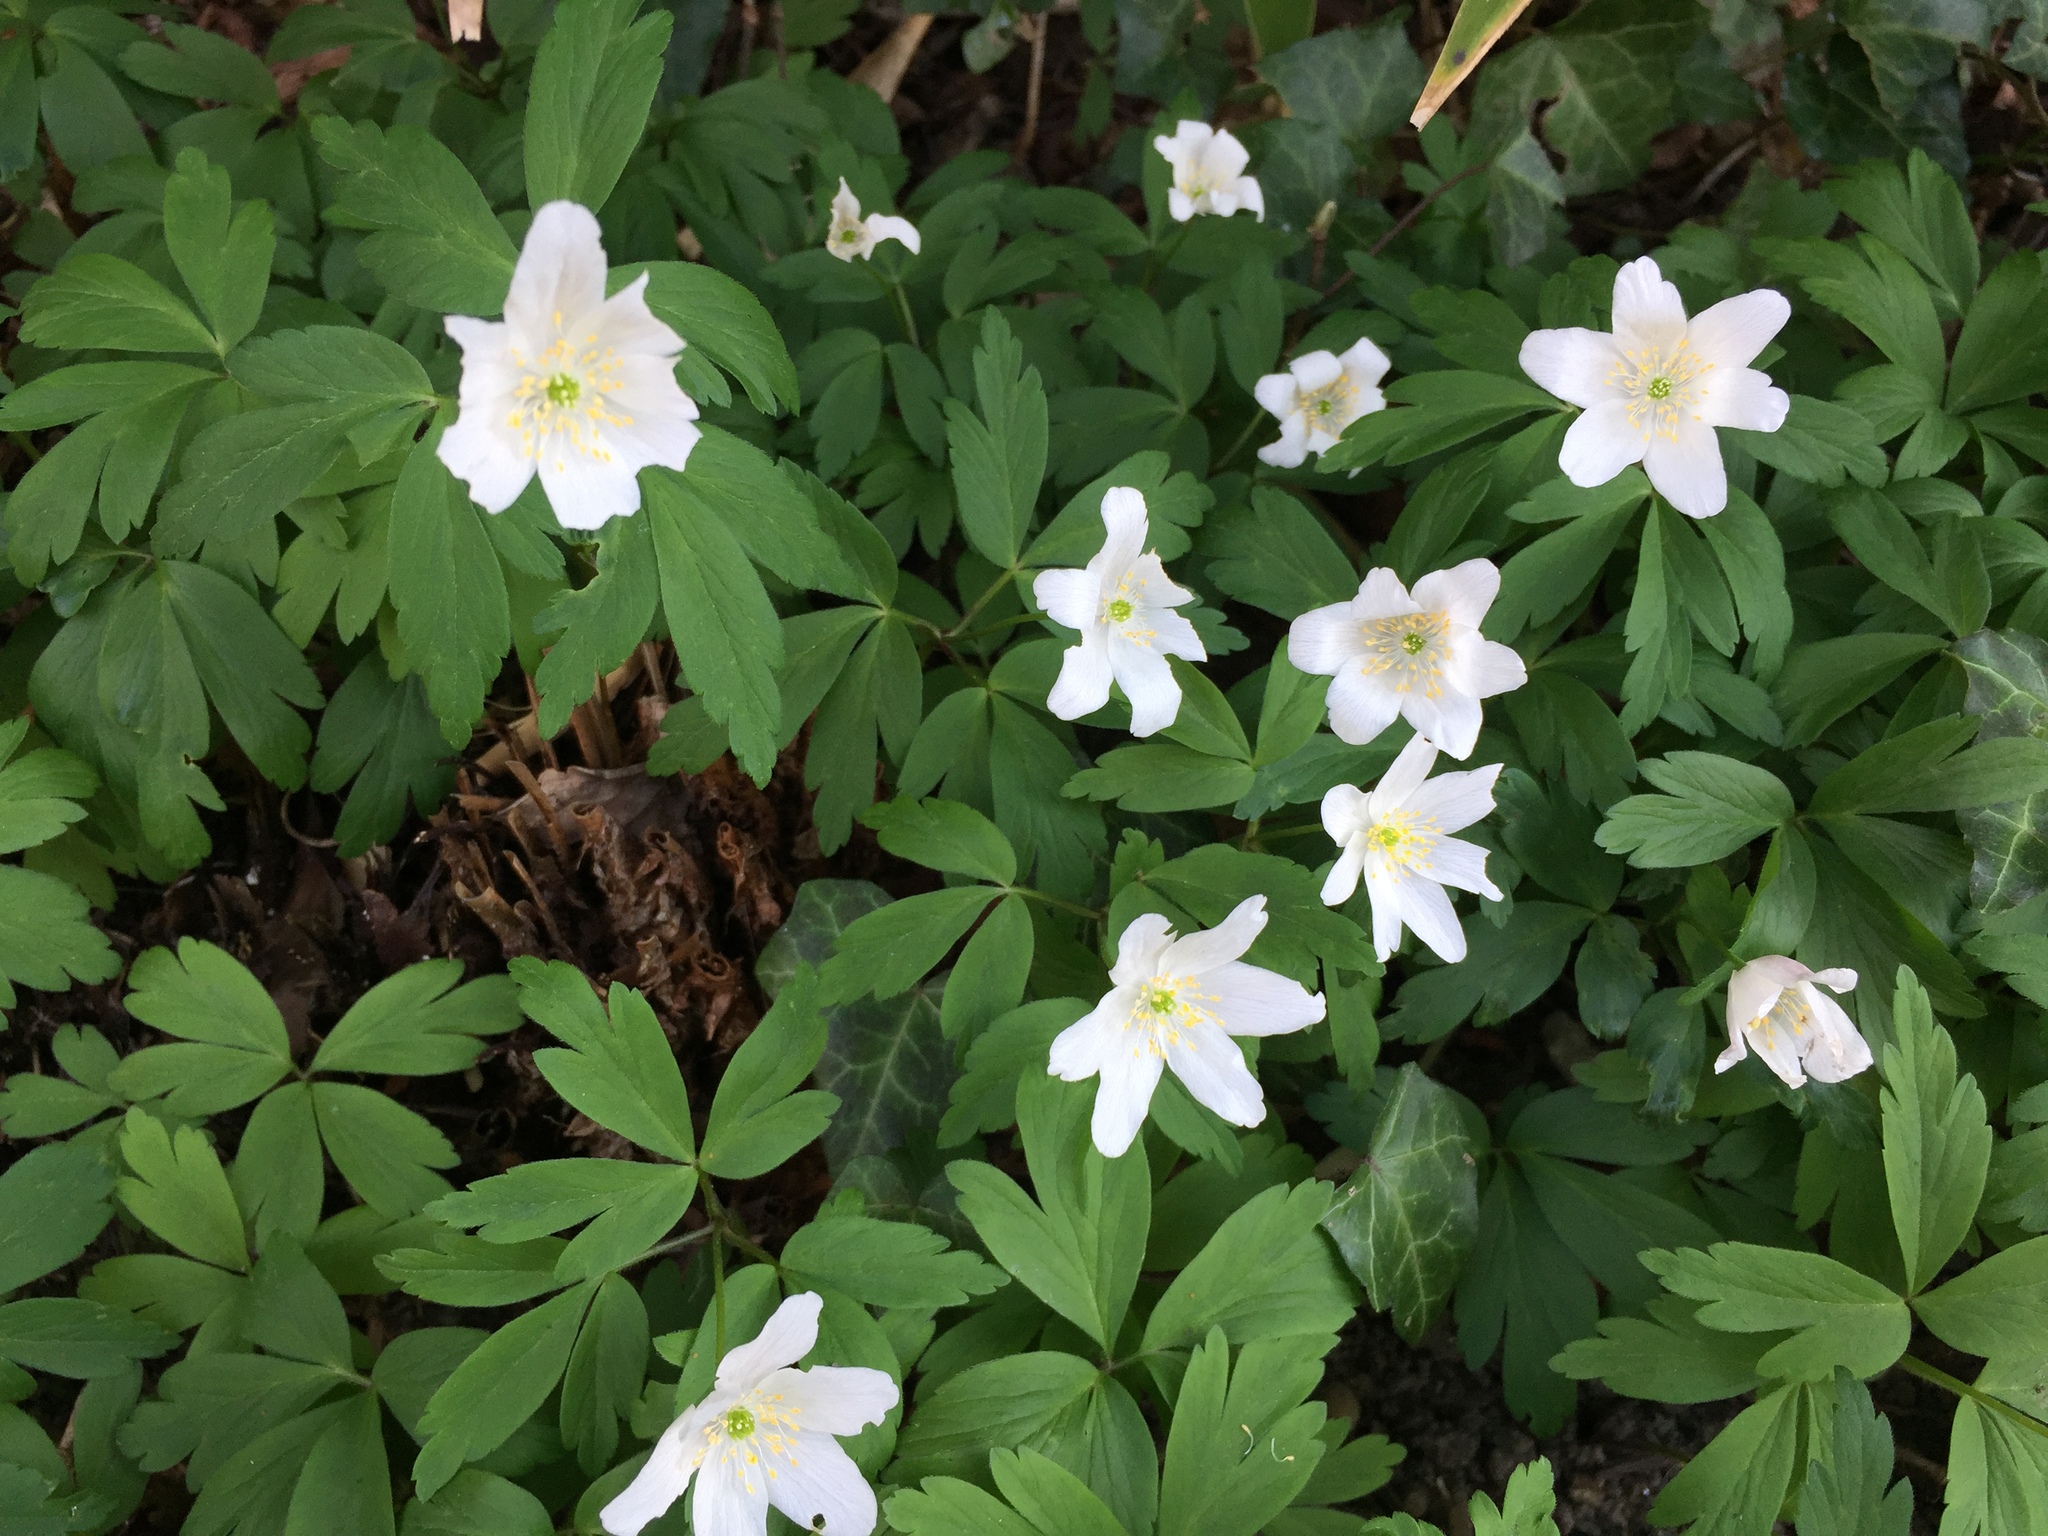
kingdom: Plantae
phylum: Tracheophyta
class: Magnoliopsida
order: Ranunculales
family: Ranunculaceae
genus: Anemone
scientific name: Anemone nemorosa
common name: Wood anemone
